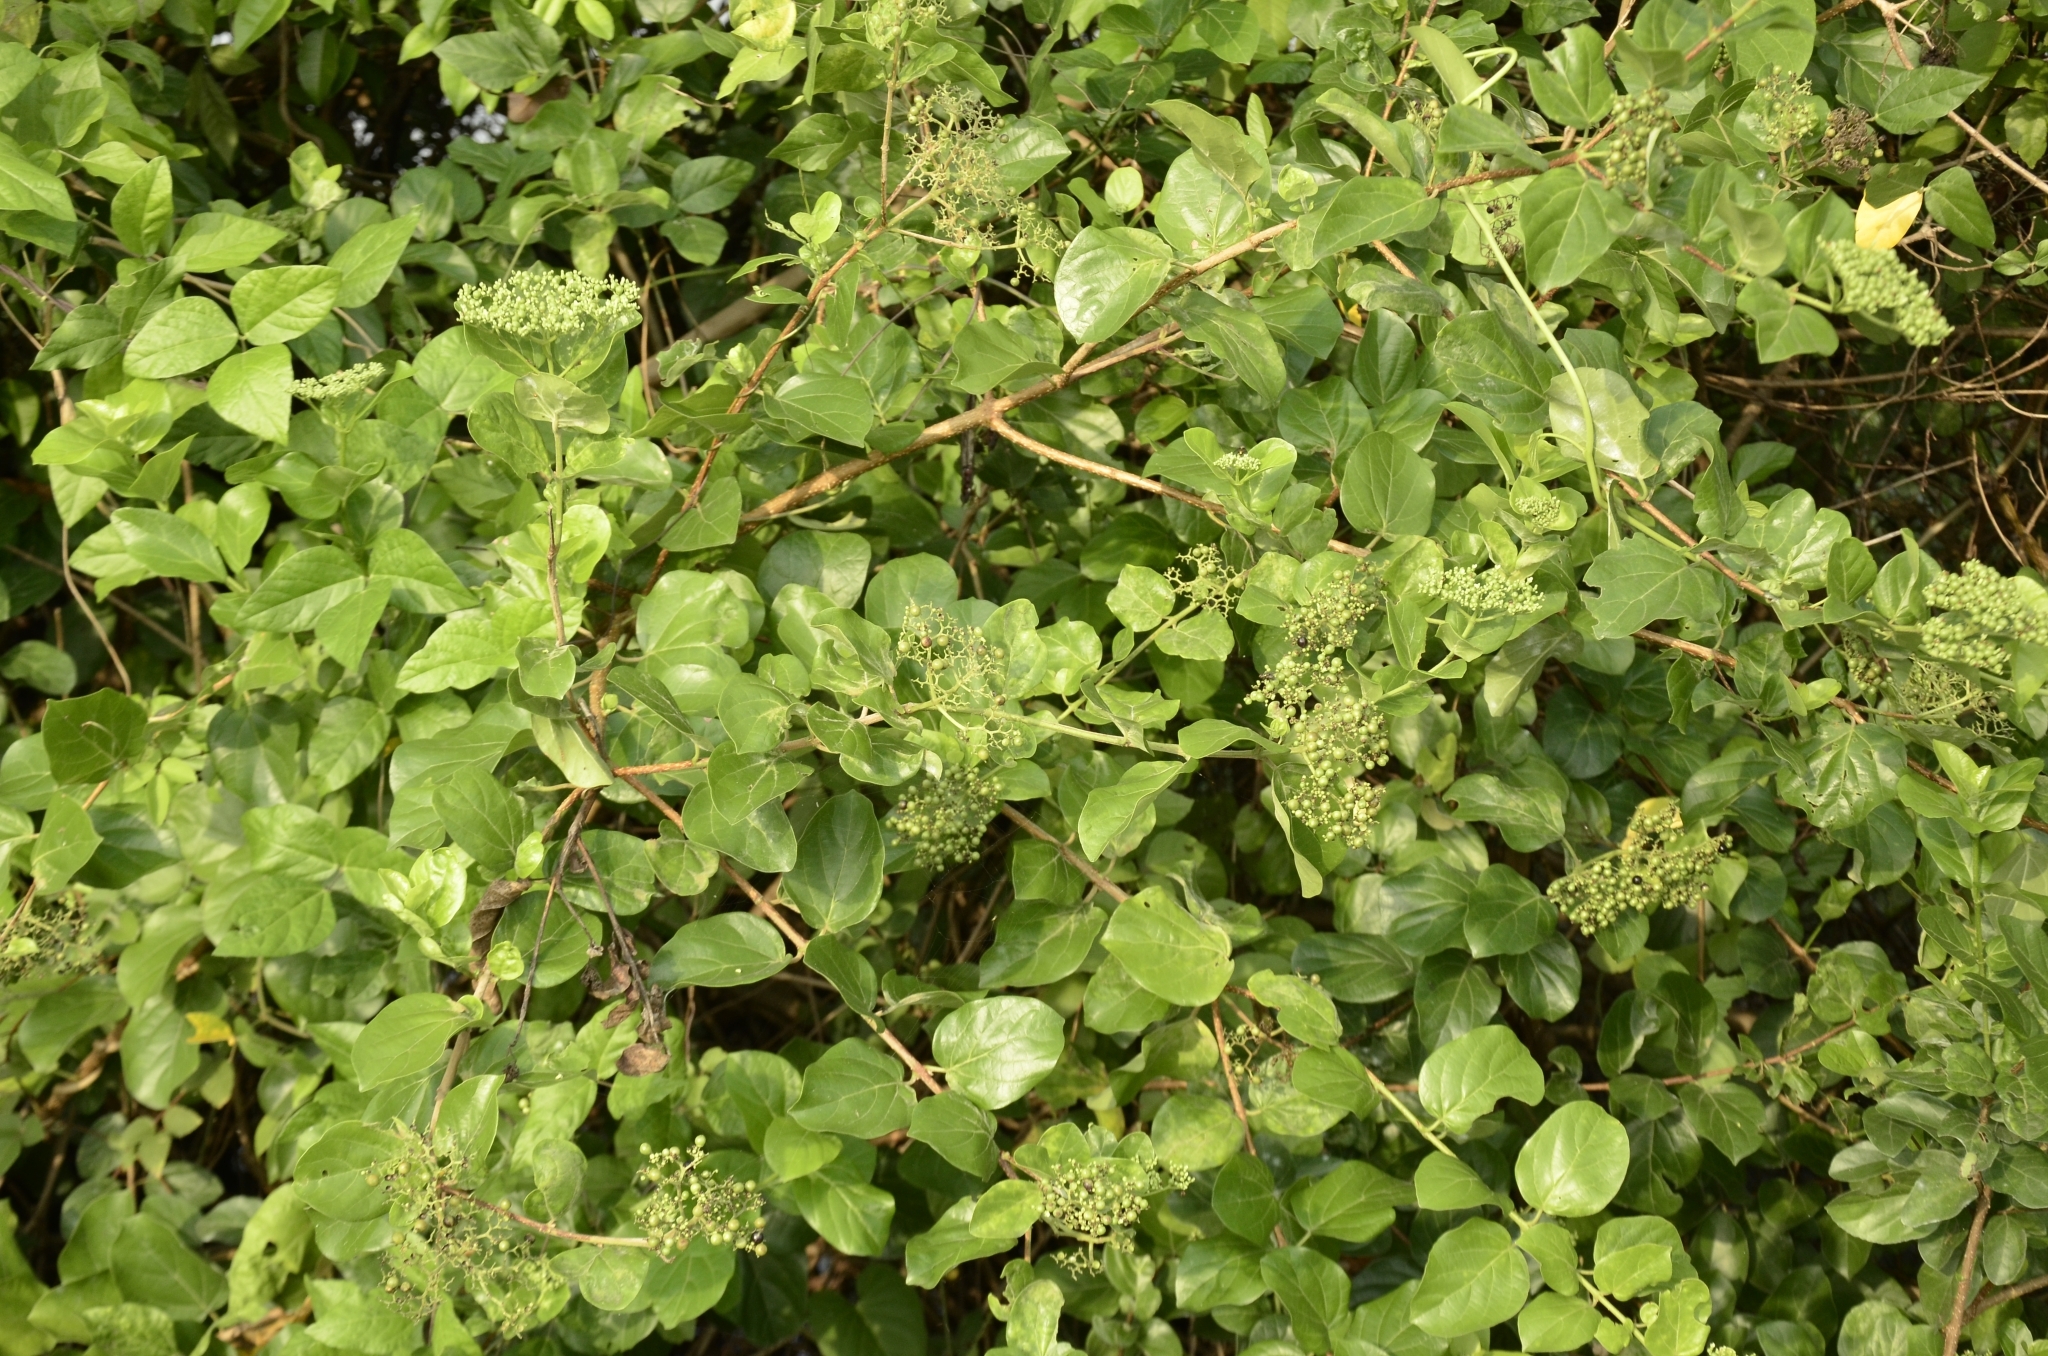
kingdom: Plantae
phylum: Tracheophyta
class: Magnoliopsida
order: Lamiales
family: Lamiaceae
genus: Premna
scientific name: Premna serratifolia
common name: Bastard guelder
